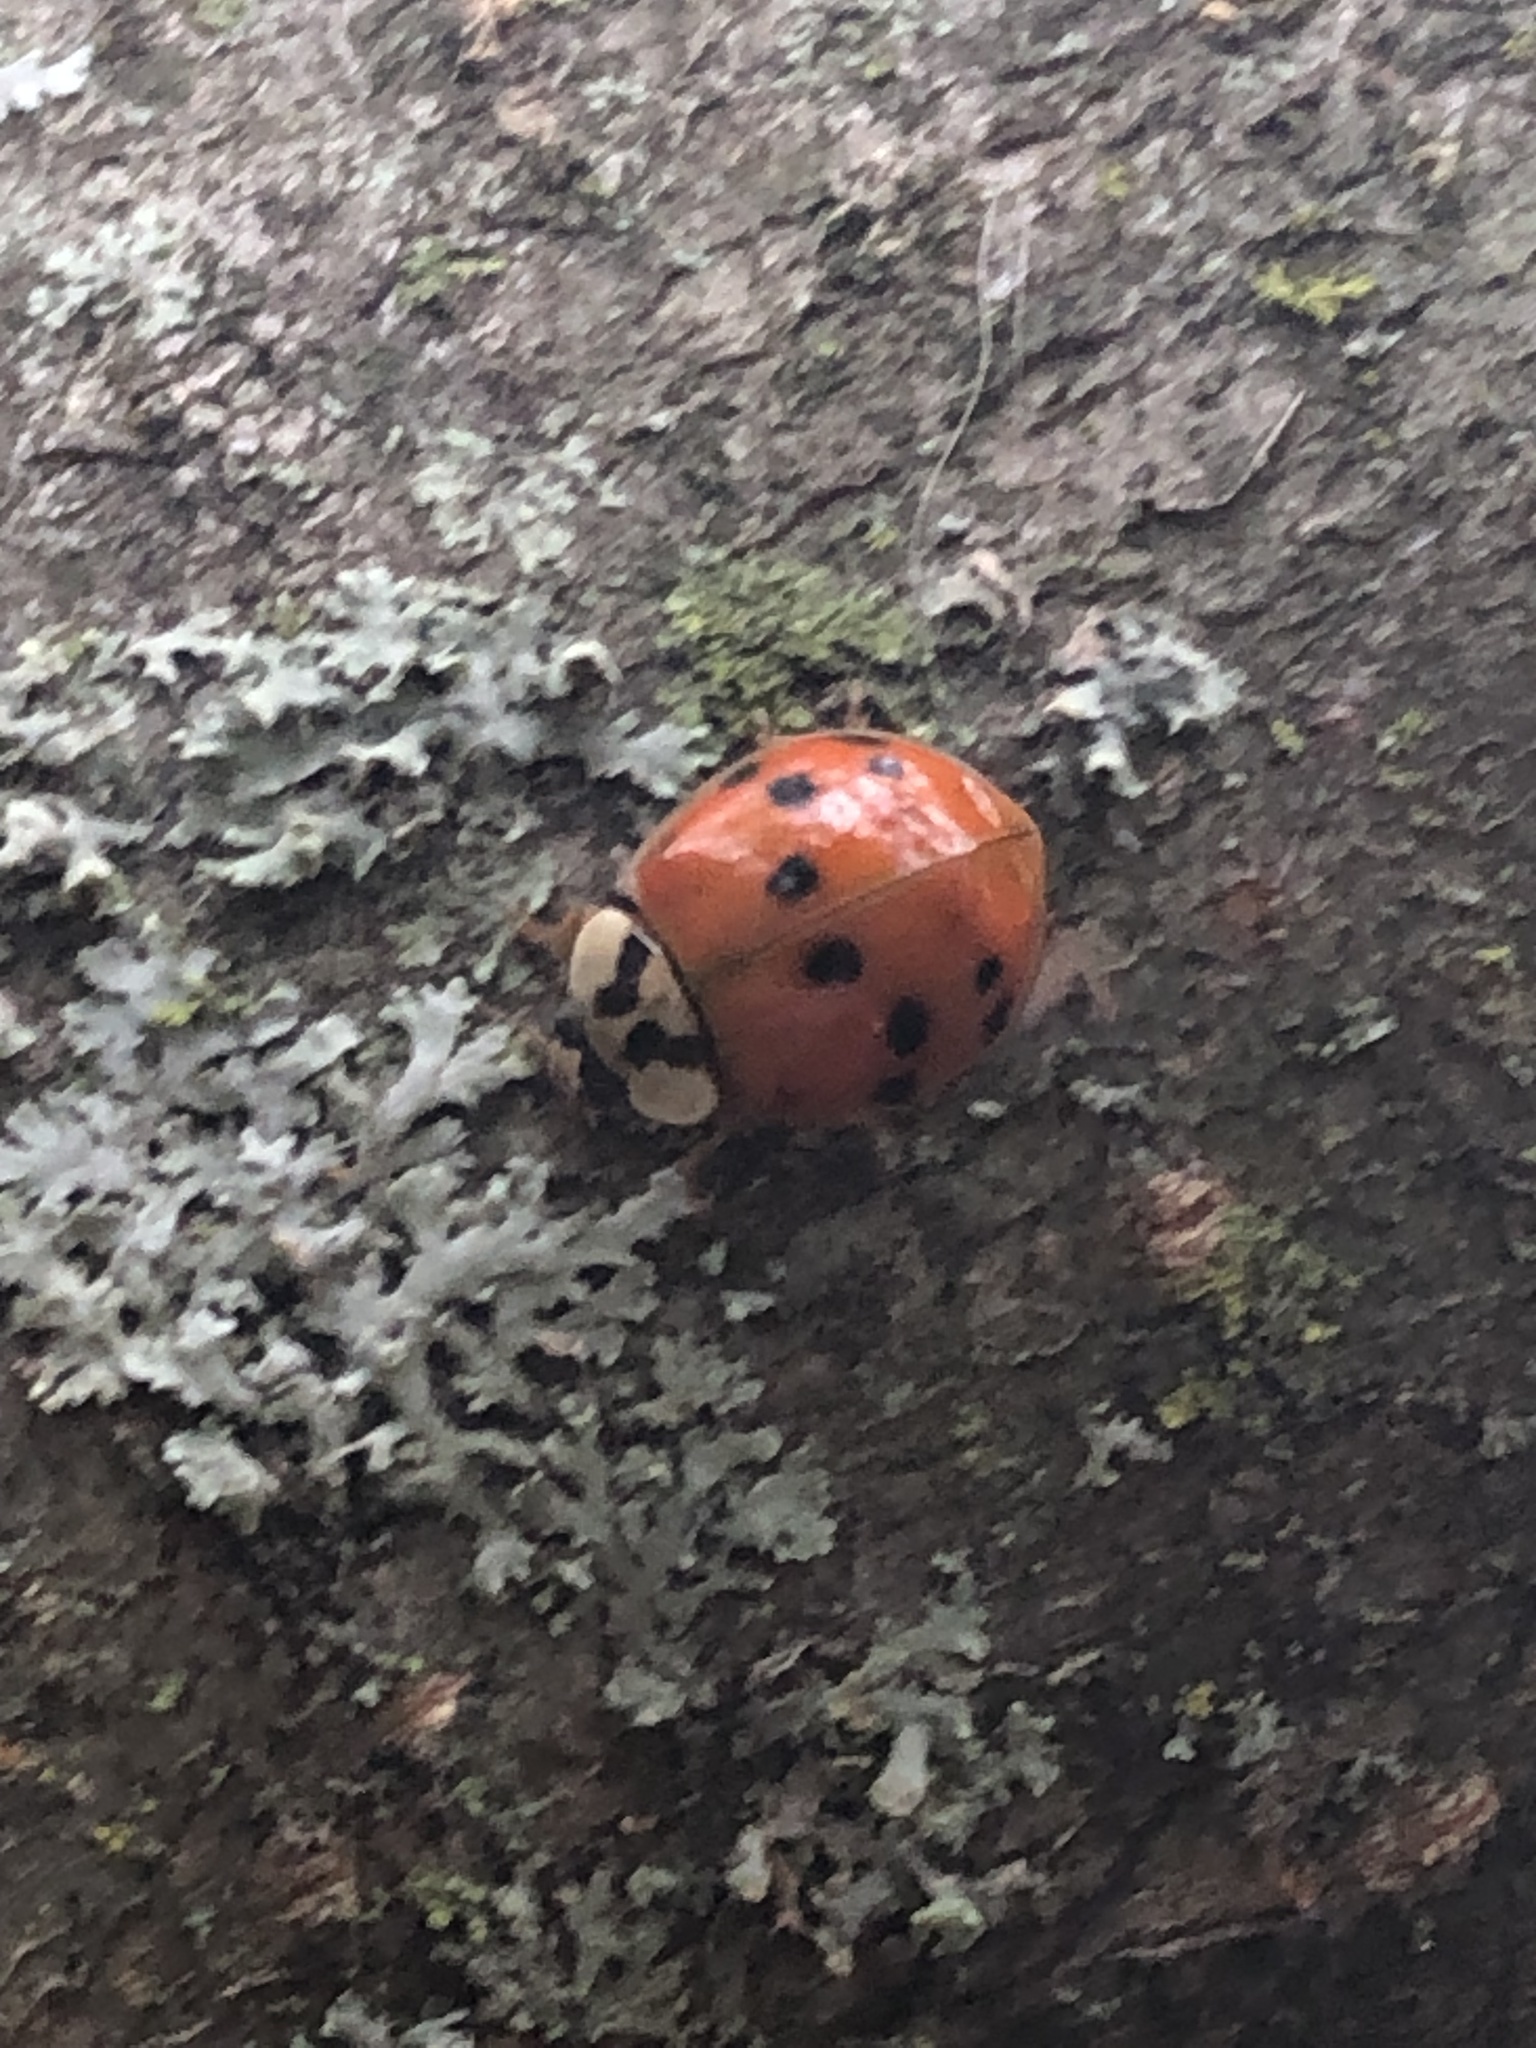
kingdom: Animalia
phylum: Arthropoda
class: Insecta
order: Coleoptera
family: Coccinellidae
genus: Harmonia
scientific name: Harmonia axyridis
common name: Harlequin ladybird
